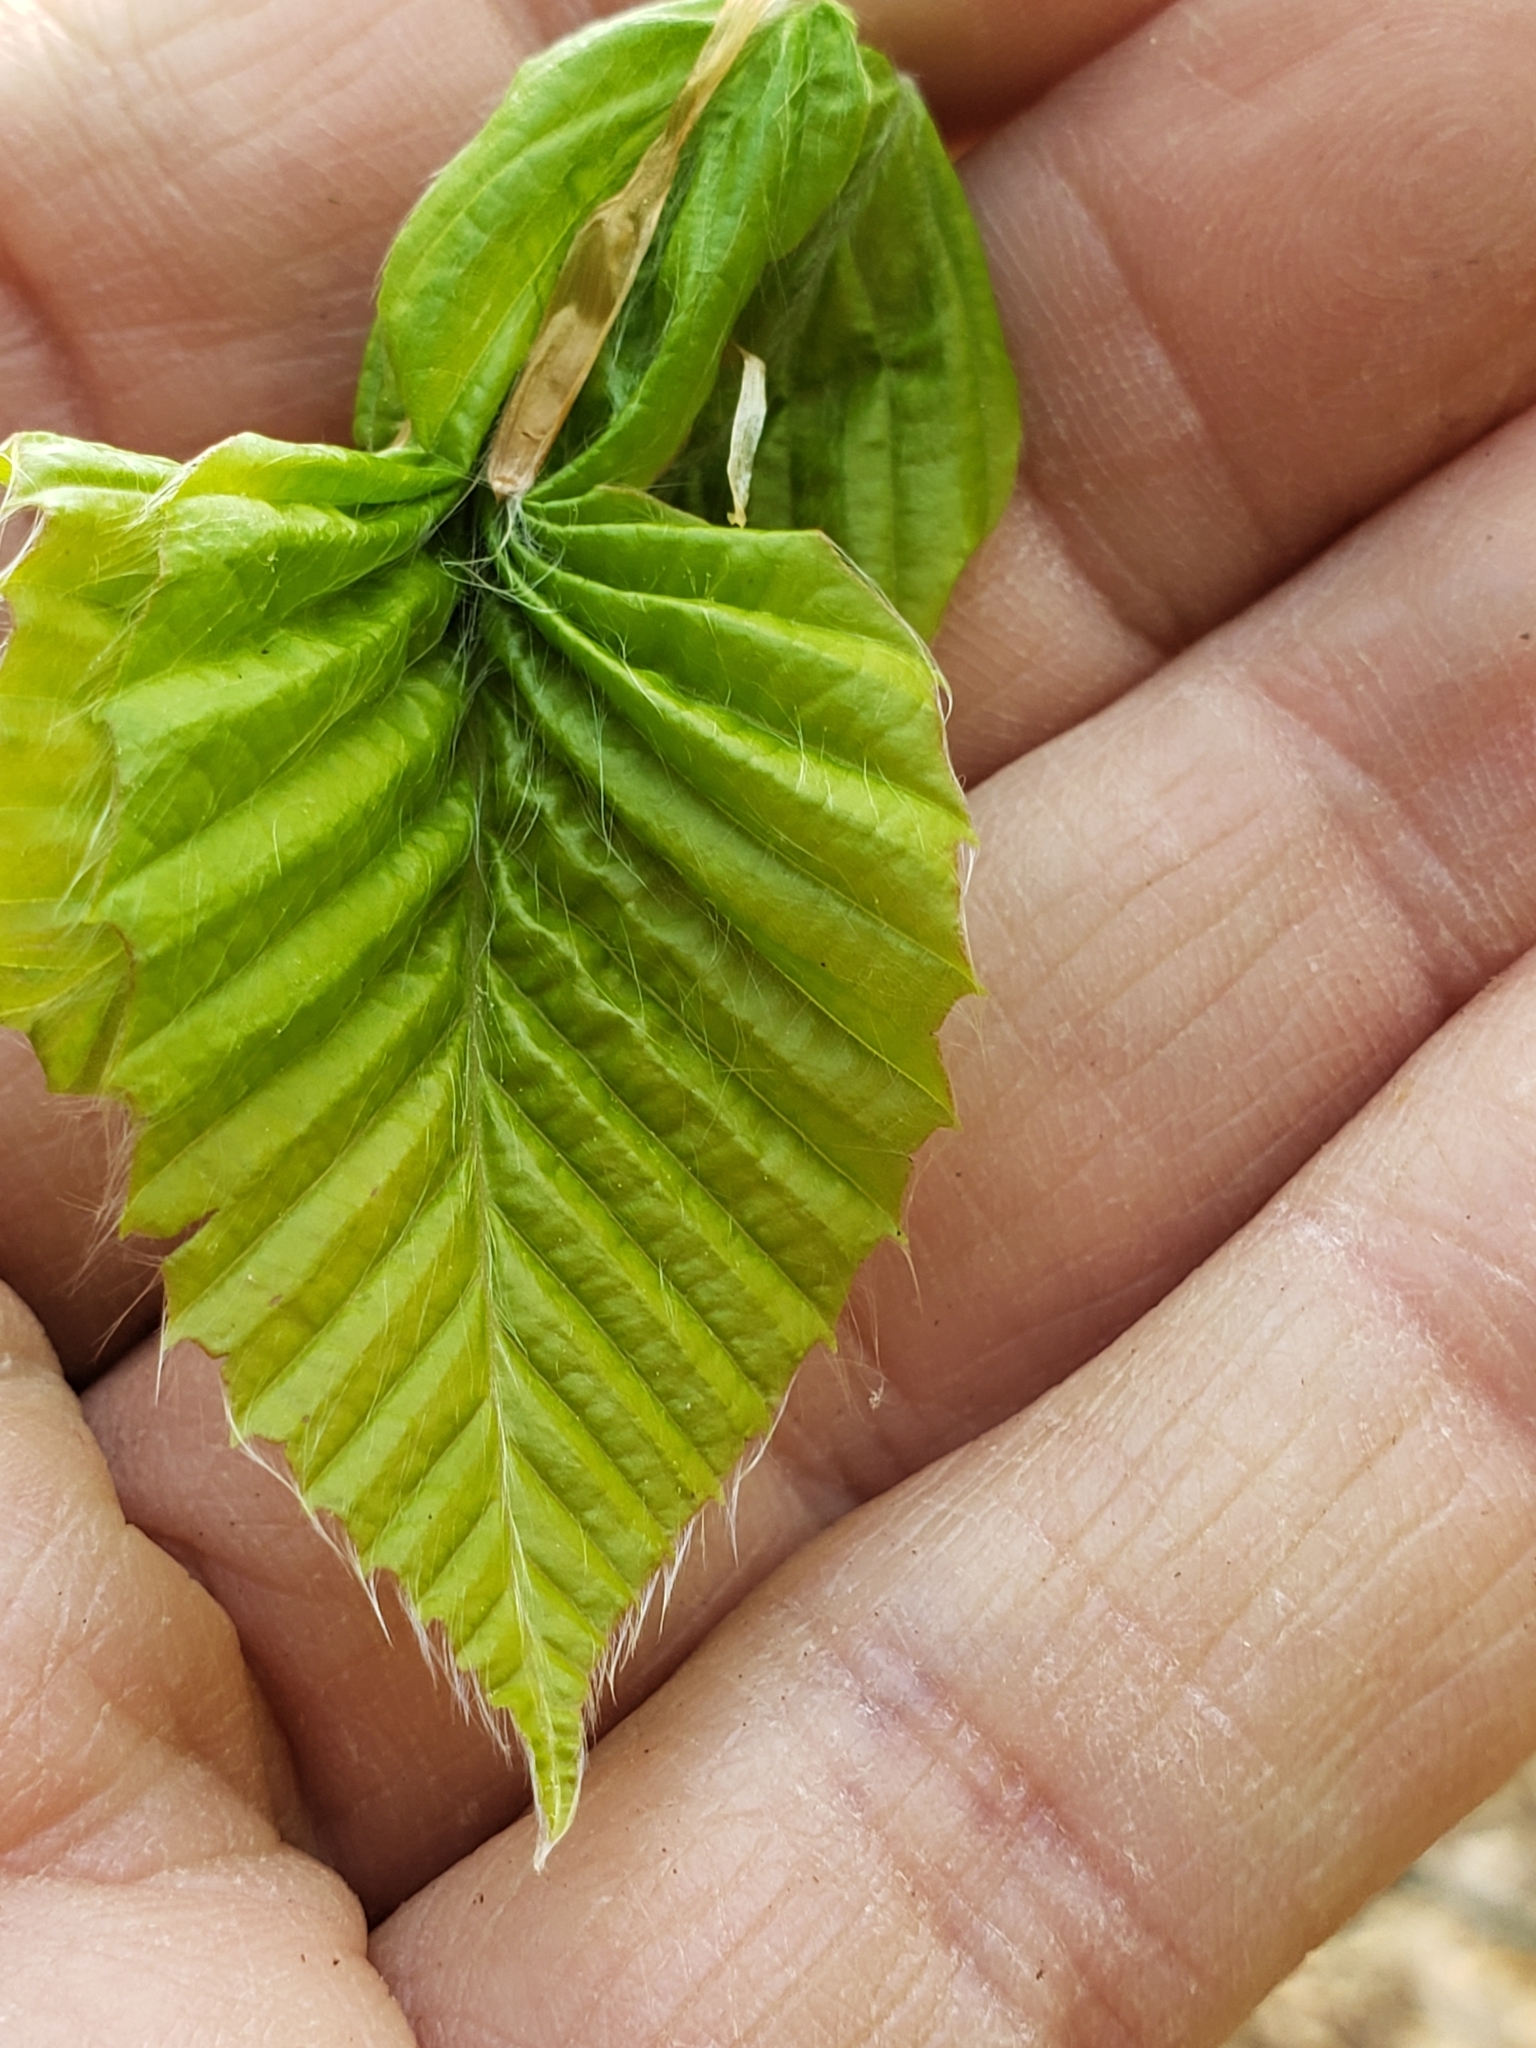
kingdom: Plantae
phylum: Tracheophyta
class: Magnoliopsida
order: Fagales
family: Fagaceae
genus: Fagus
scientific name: Fagus grandifolia
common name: American beech
